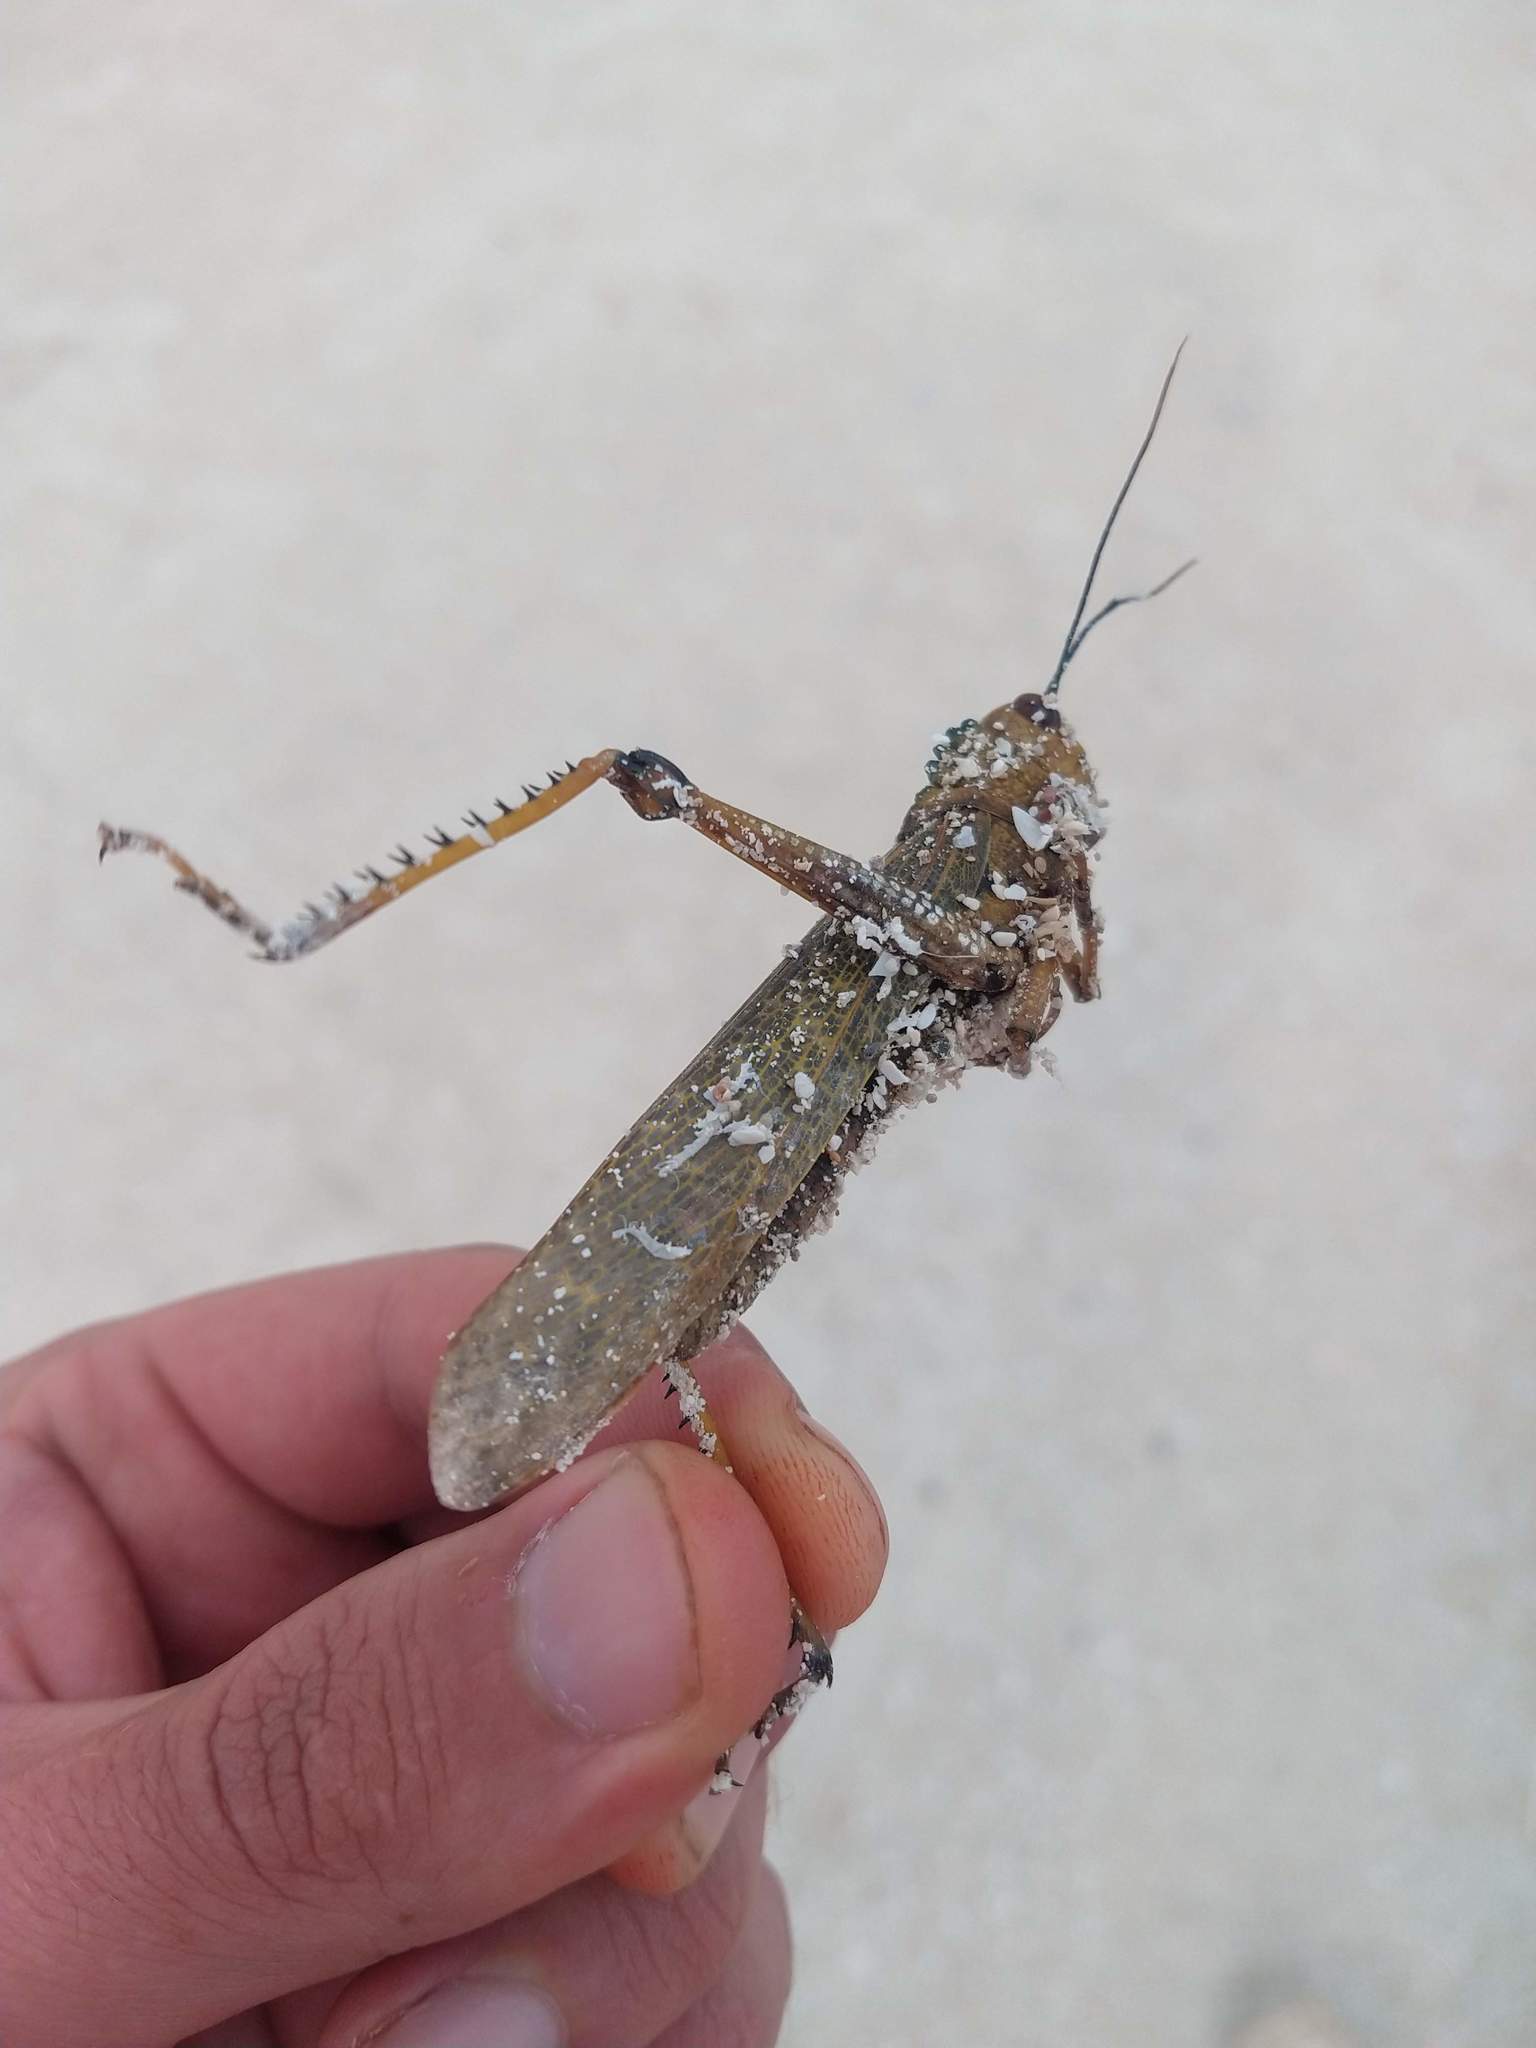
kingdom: Animalia
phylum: Arthropoda
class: Insecta
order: Orthoptera
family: Romaleidae
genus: Tropidacris
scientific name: Tropidacris cristata
